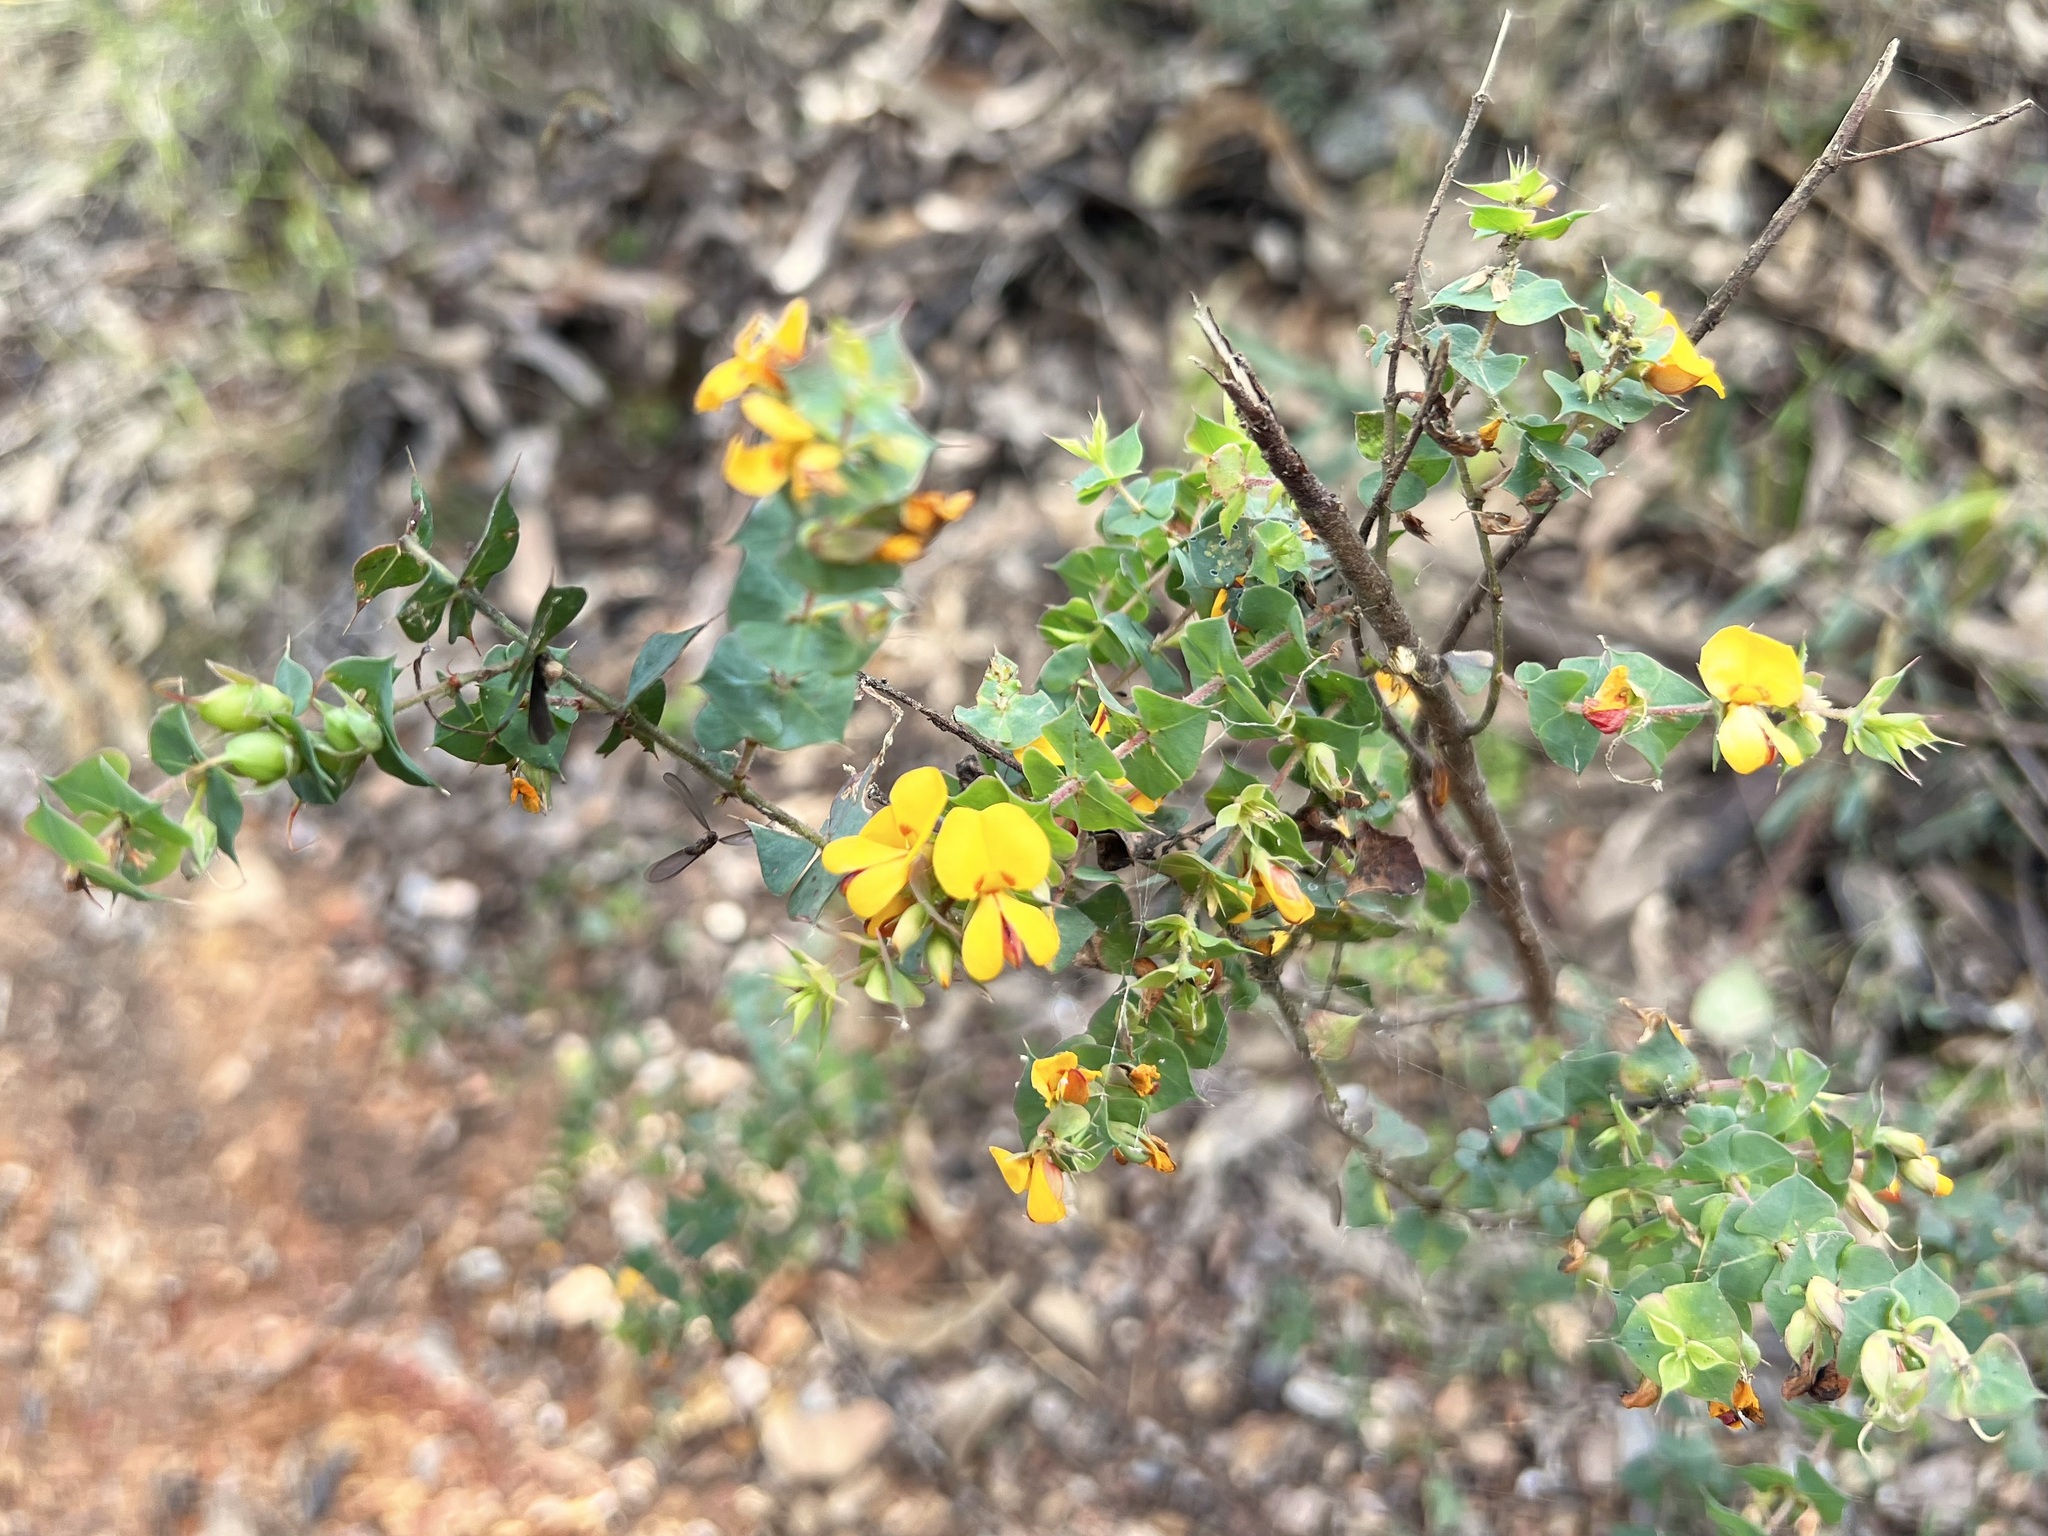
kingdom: Plantae
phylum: Tracheophyta
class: Magnoliopsida
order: Fabales
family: Fabaceae
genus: Pultenaea
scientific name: Pultenaea spinosa
